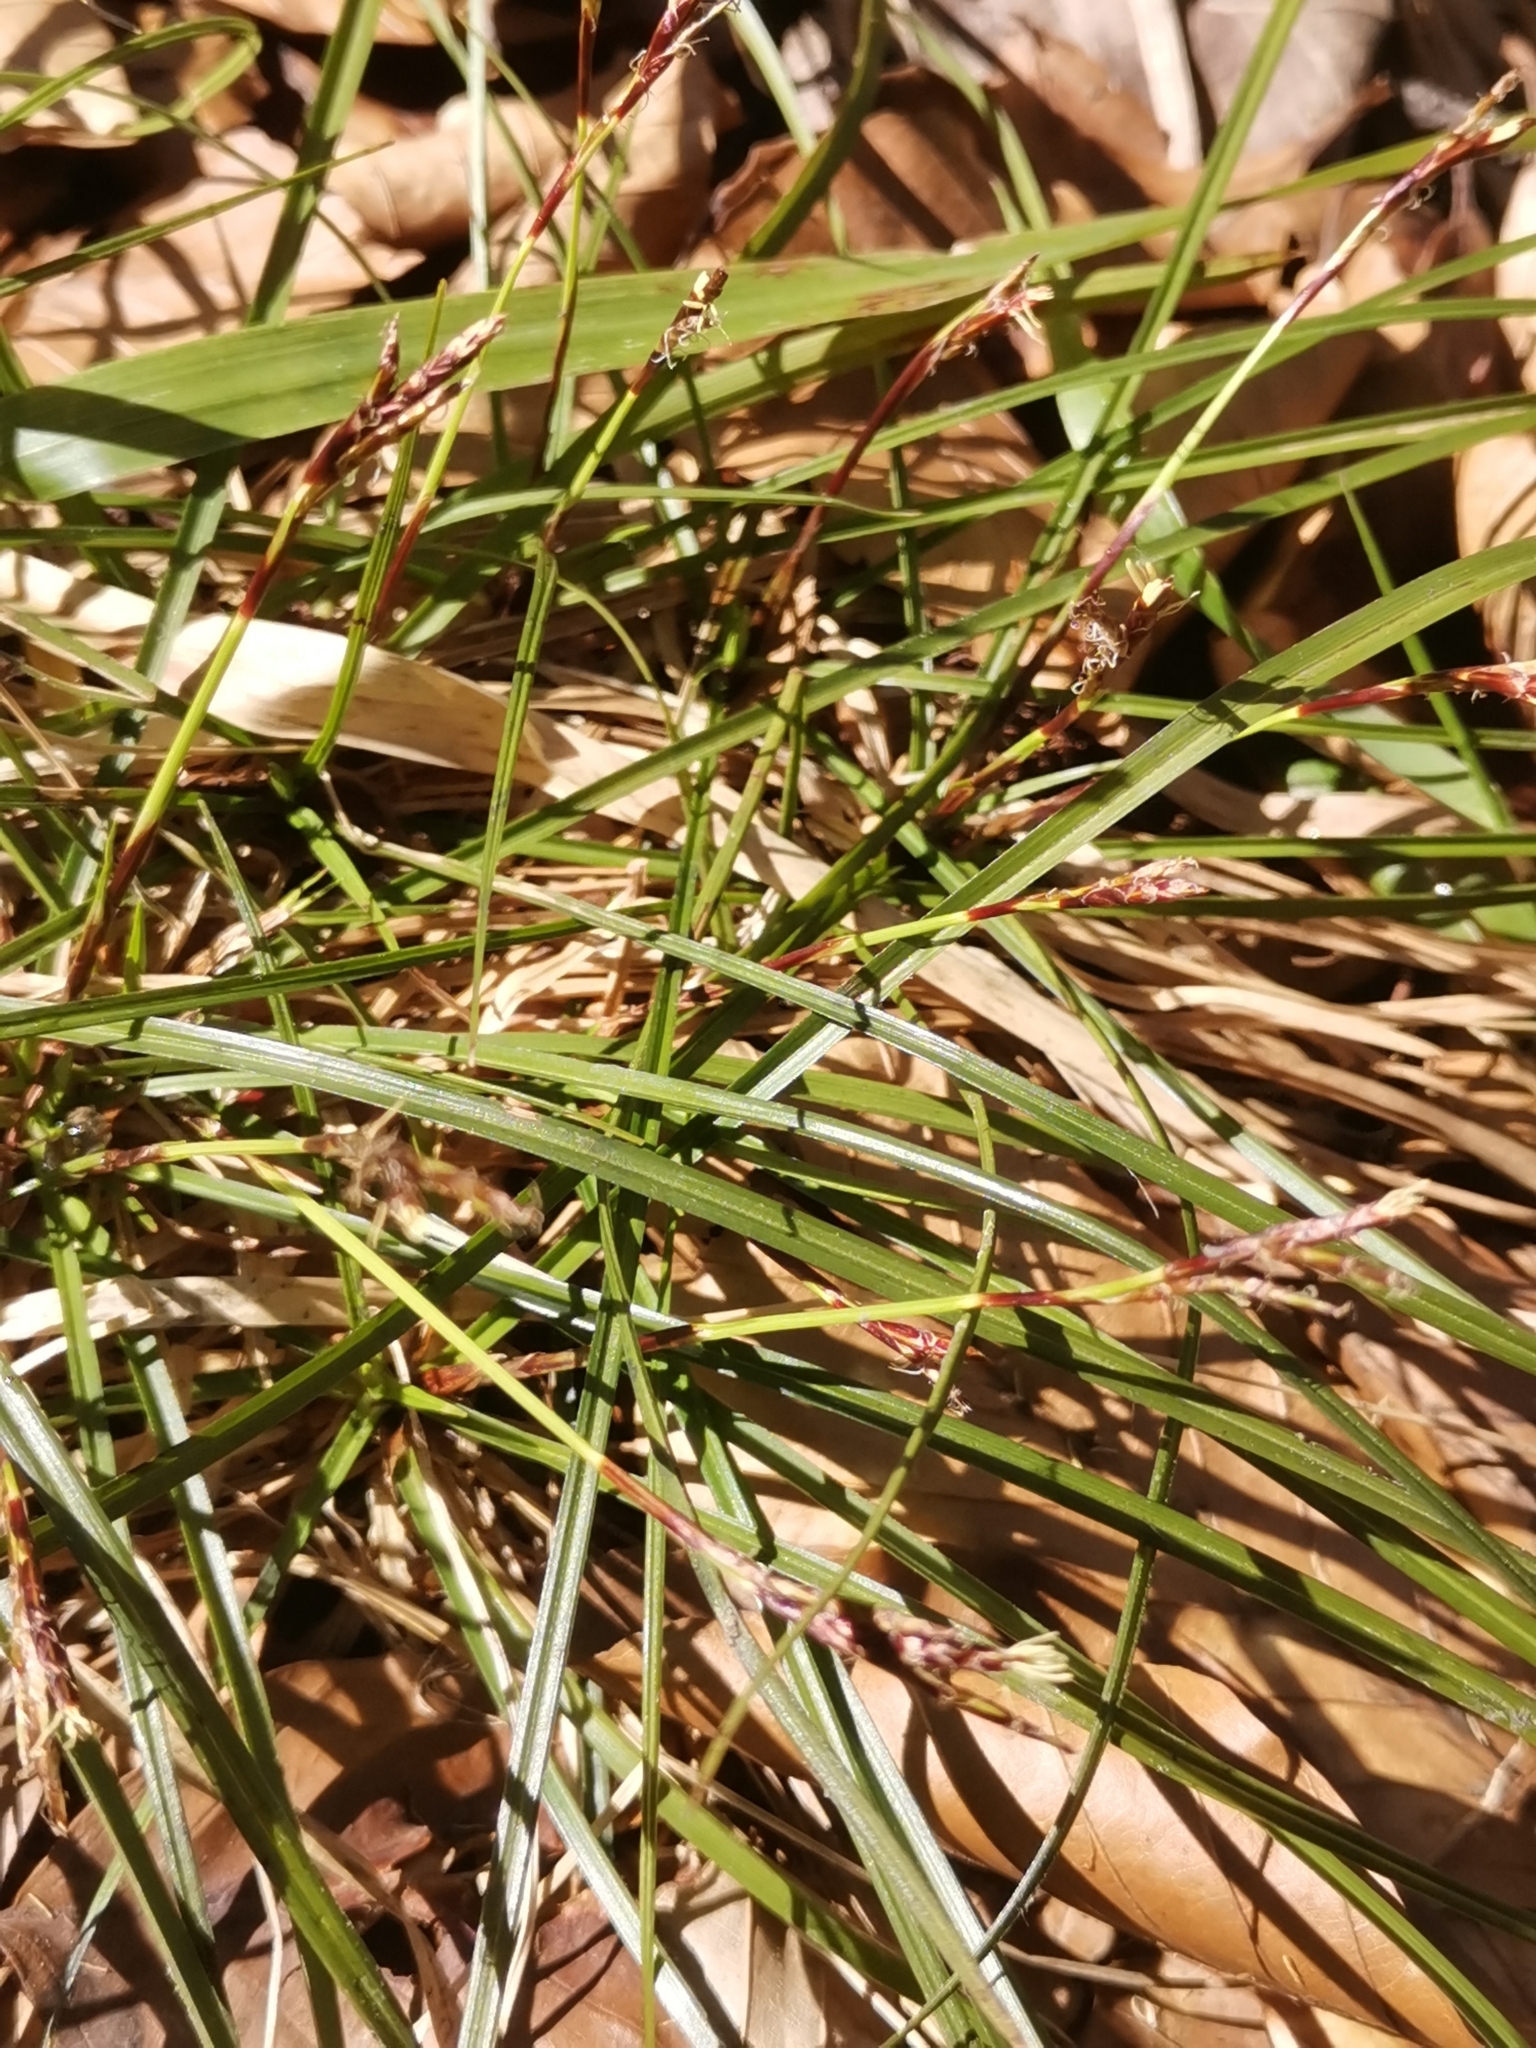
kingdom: Plantae
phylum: Tracheophyta
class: Liliopsida
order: Poales
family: Cyperaceae
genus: Carex
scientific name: Carex digitata
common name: Fingered sedge
